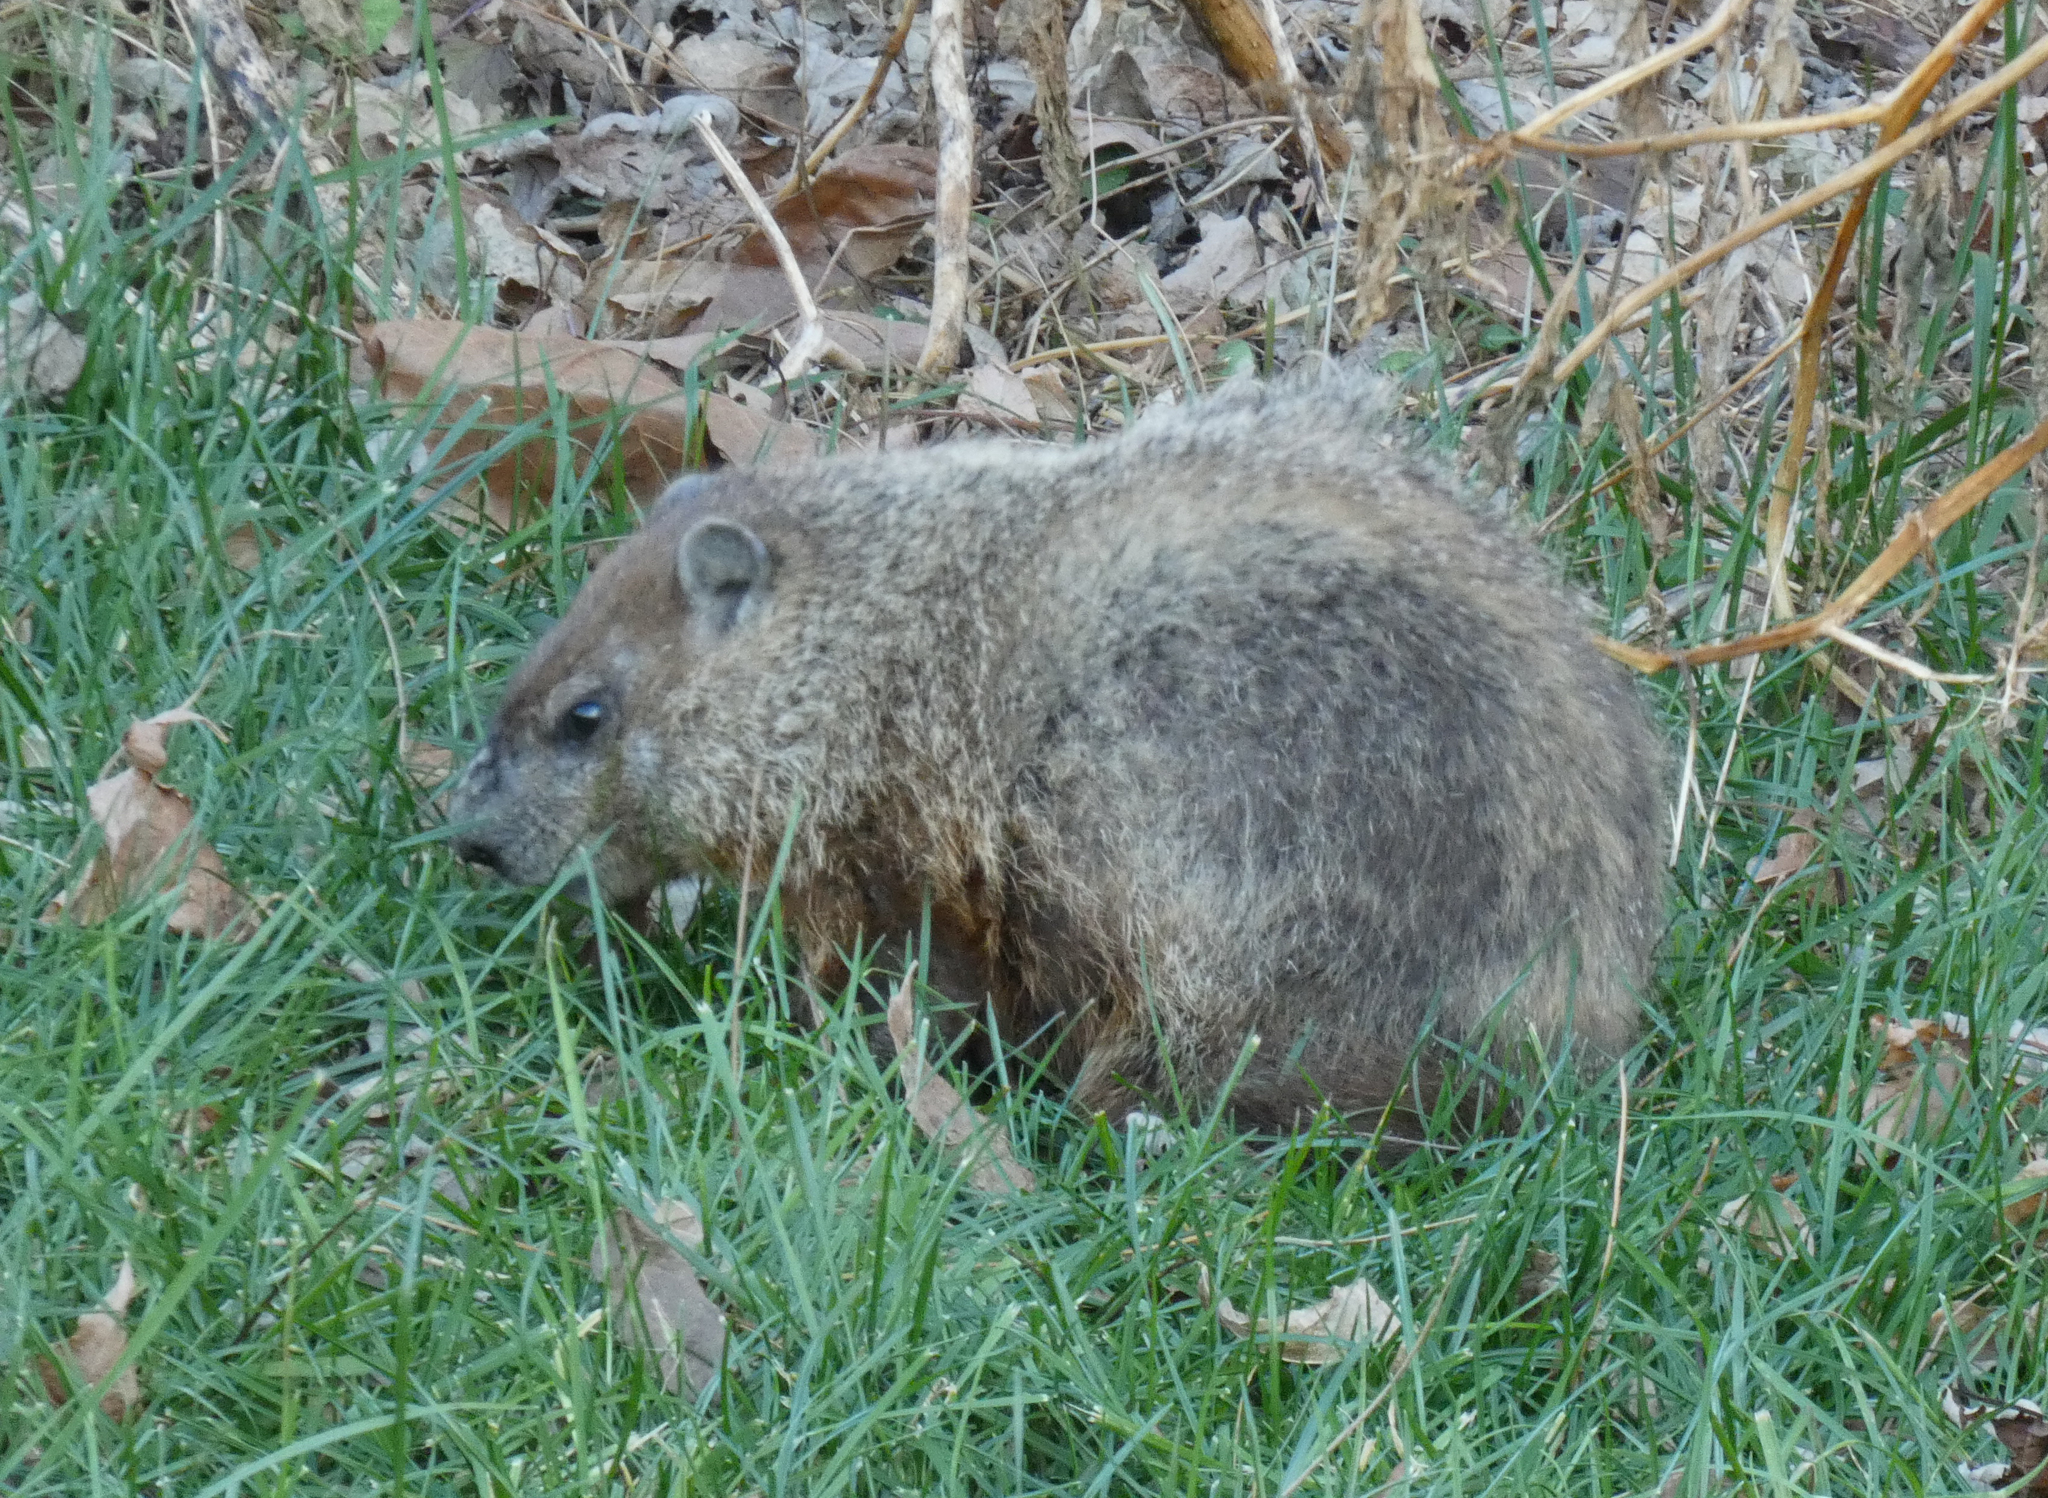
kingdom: Animalia
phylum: Chordata
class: Mammalia
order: Rodentia
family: Sciuridae
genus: Marmota
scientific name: Marmota monax
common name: Groundhog
